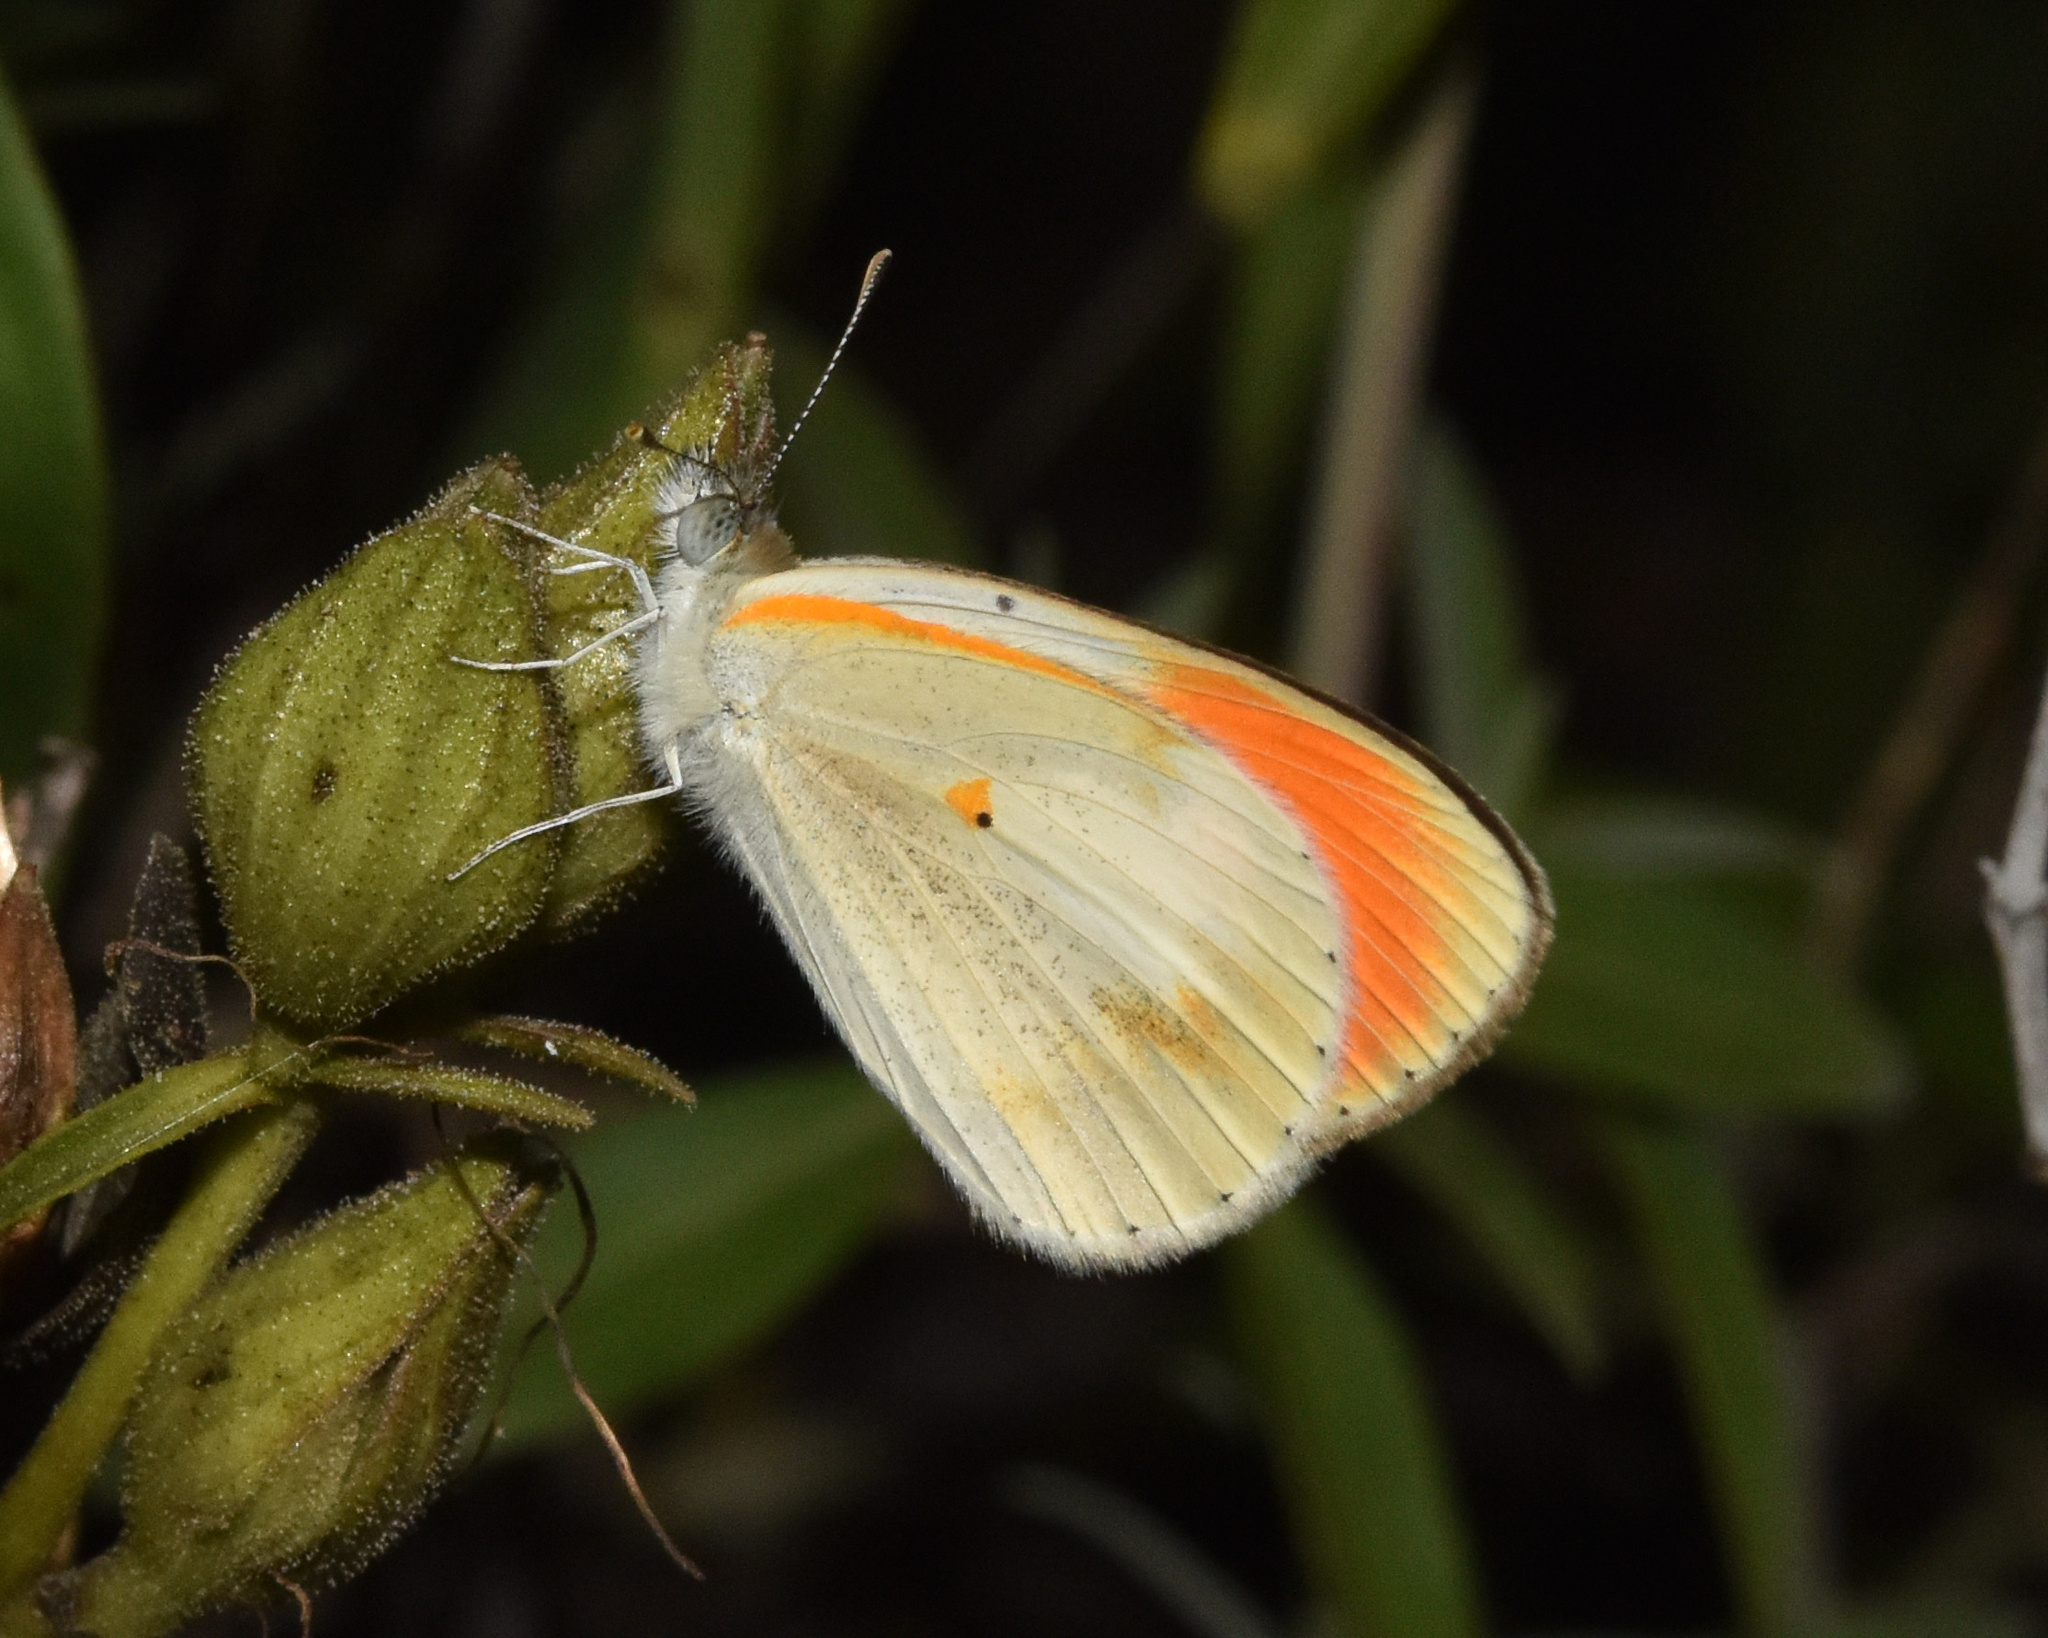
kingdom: Animalia
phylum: Arthropoda
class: Insecta
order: Lepidoptera
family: Pieridae
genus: Colotis
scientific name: Colotis evagore
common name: Desert orange-tip
